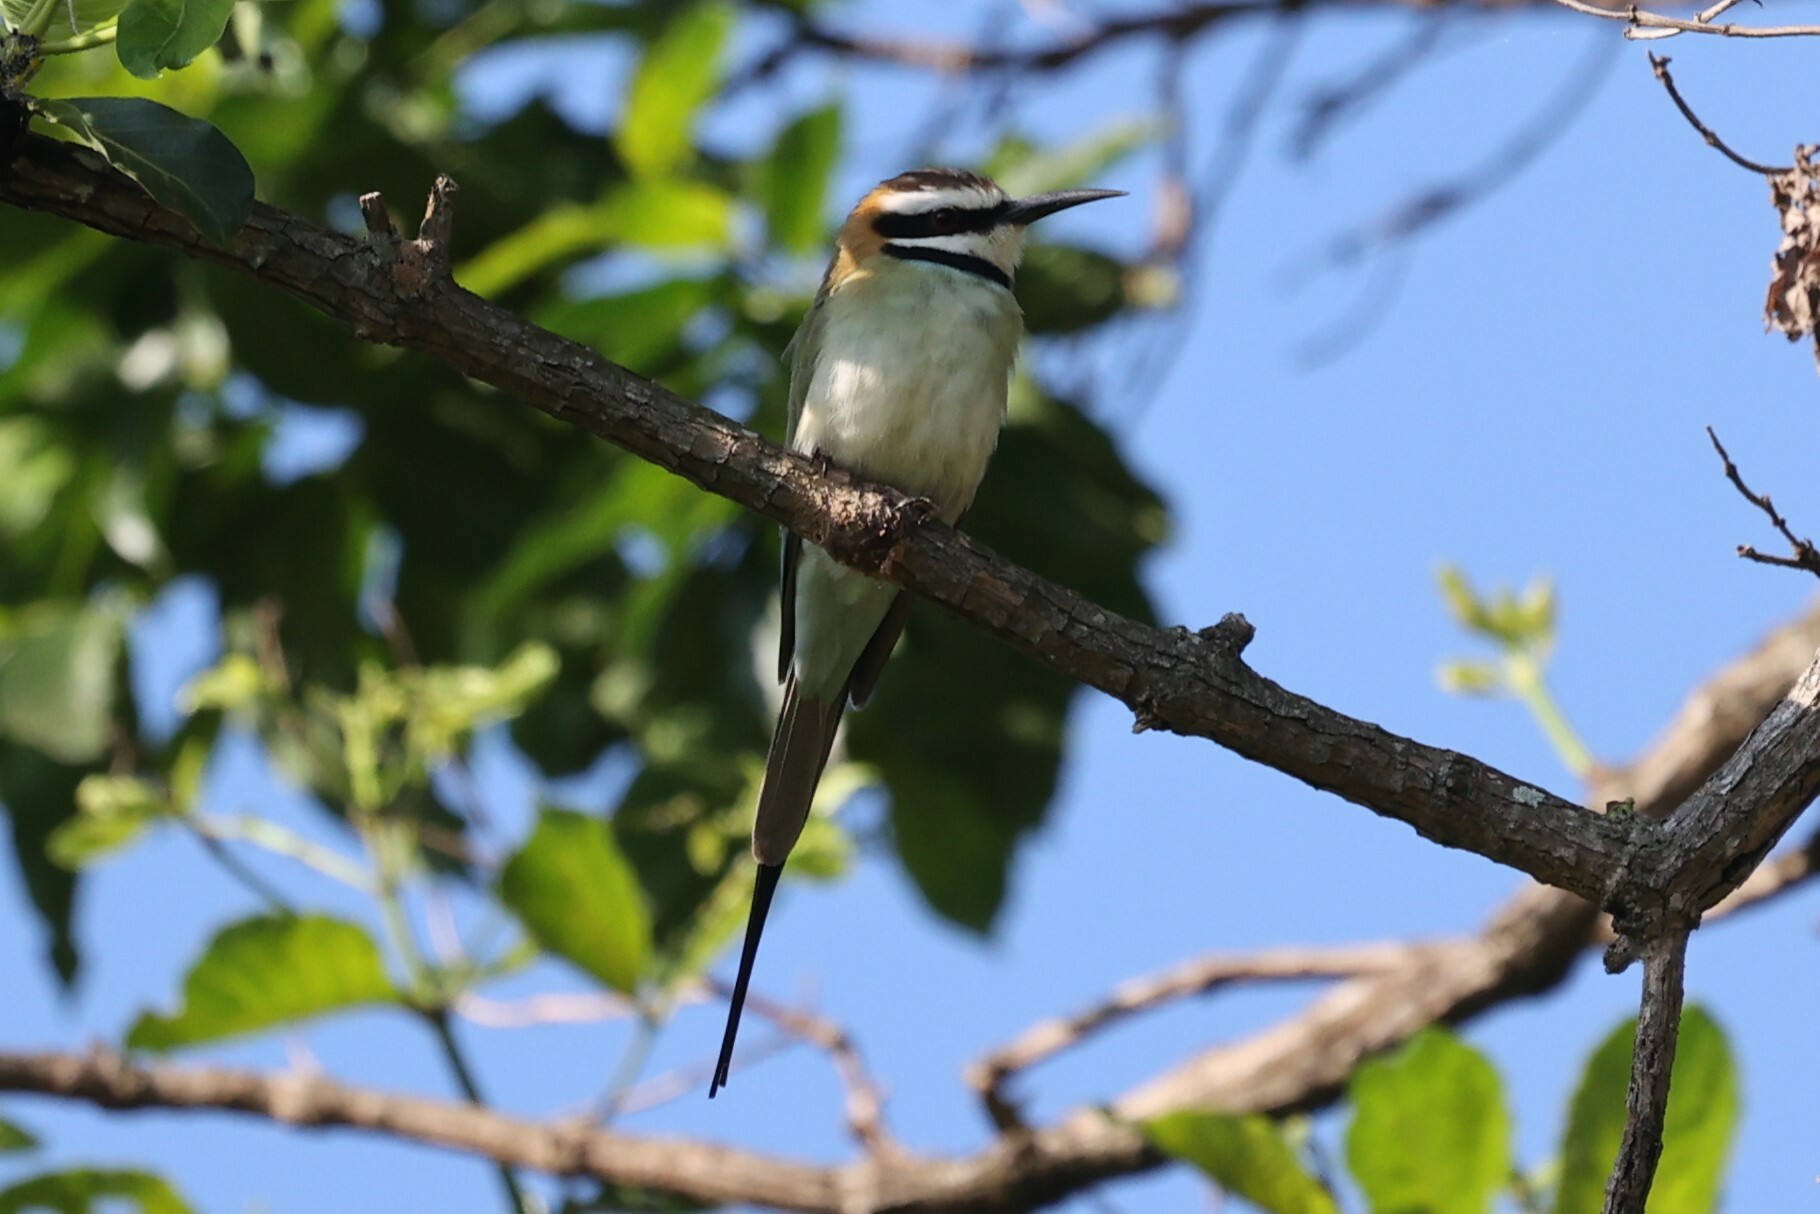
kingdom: Animalia
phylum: Chordata
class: Aves
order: Coraciiformes
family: Meropidae
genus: Merops
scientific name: Merops albicollis
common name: White-throated bee-eater
